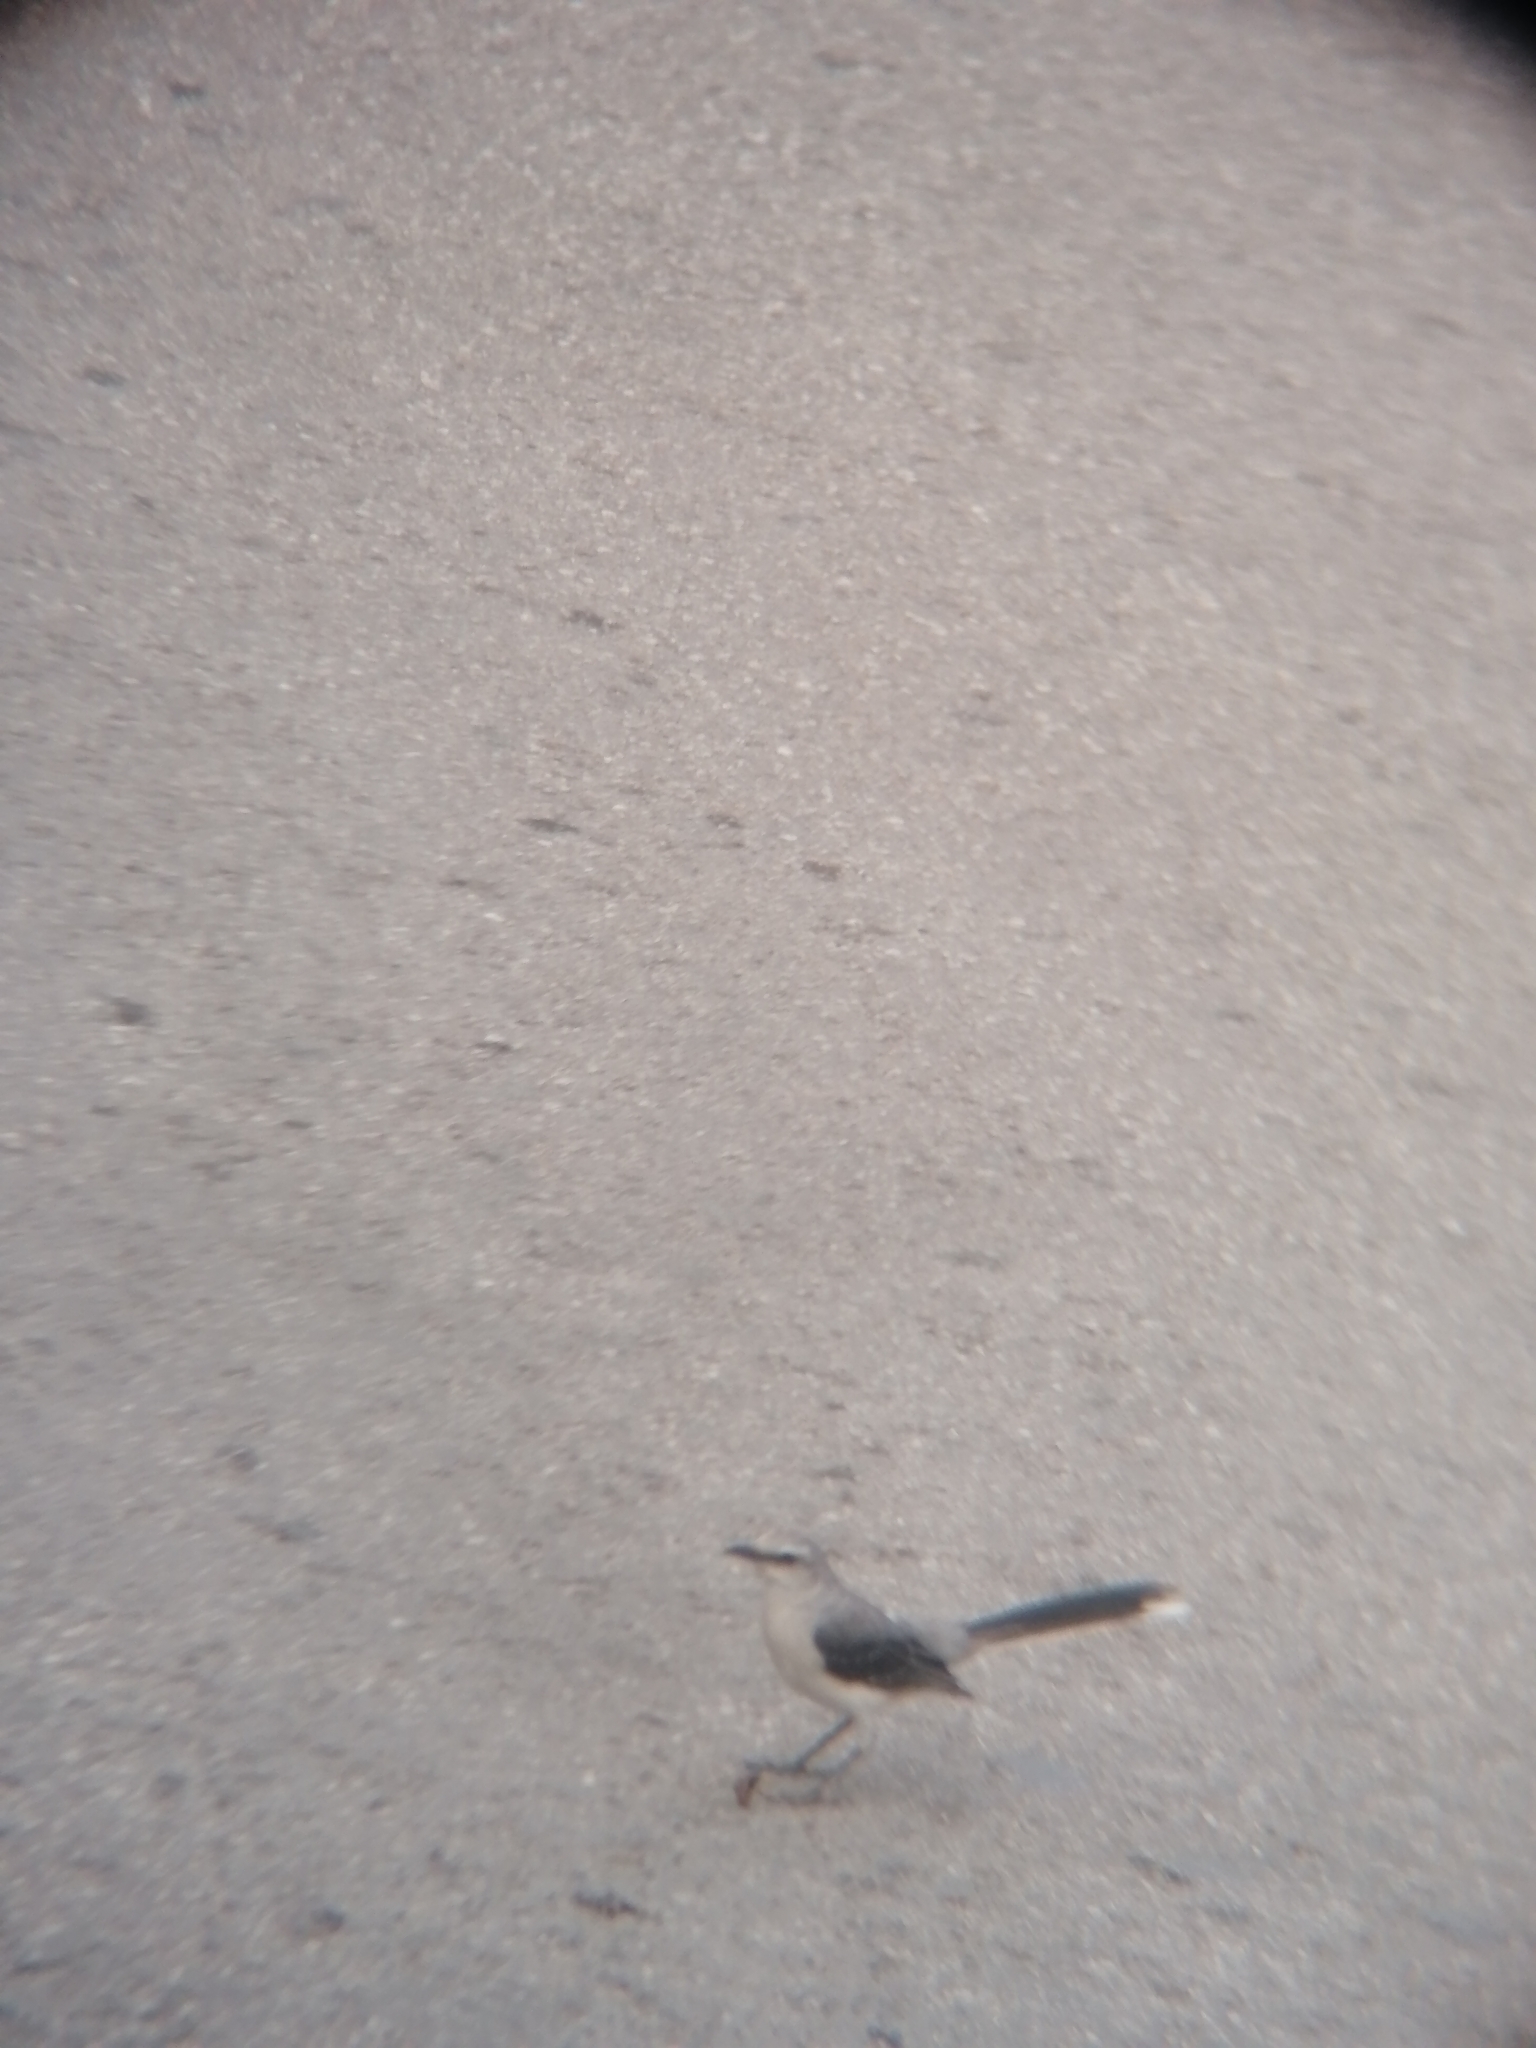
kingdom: Animalia
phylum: Chordata
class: Aves
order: Passeriformes
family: Mimidae
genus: Mimus
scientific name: Mimus gilvus
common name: Tropical mockingbird
